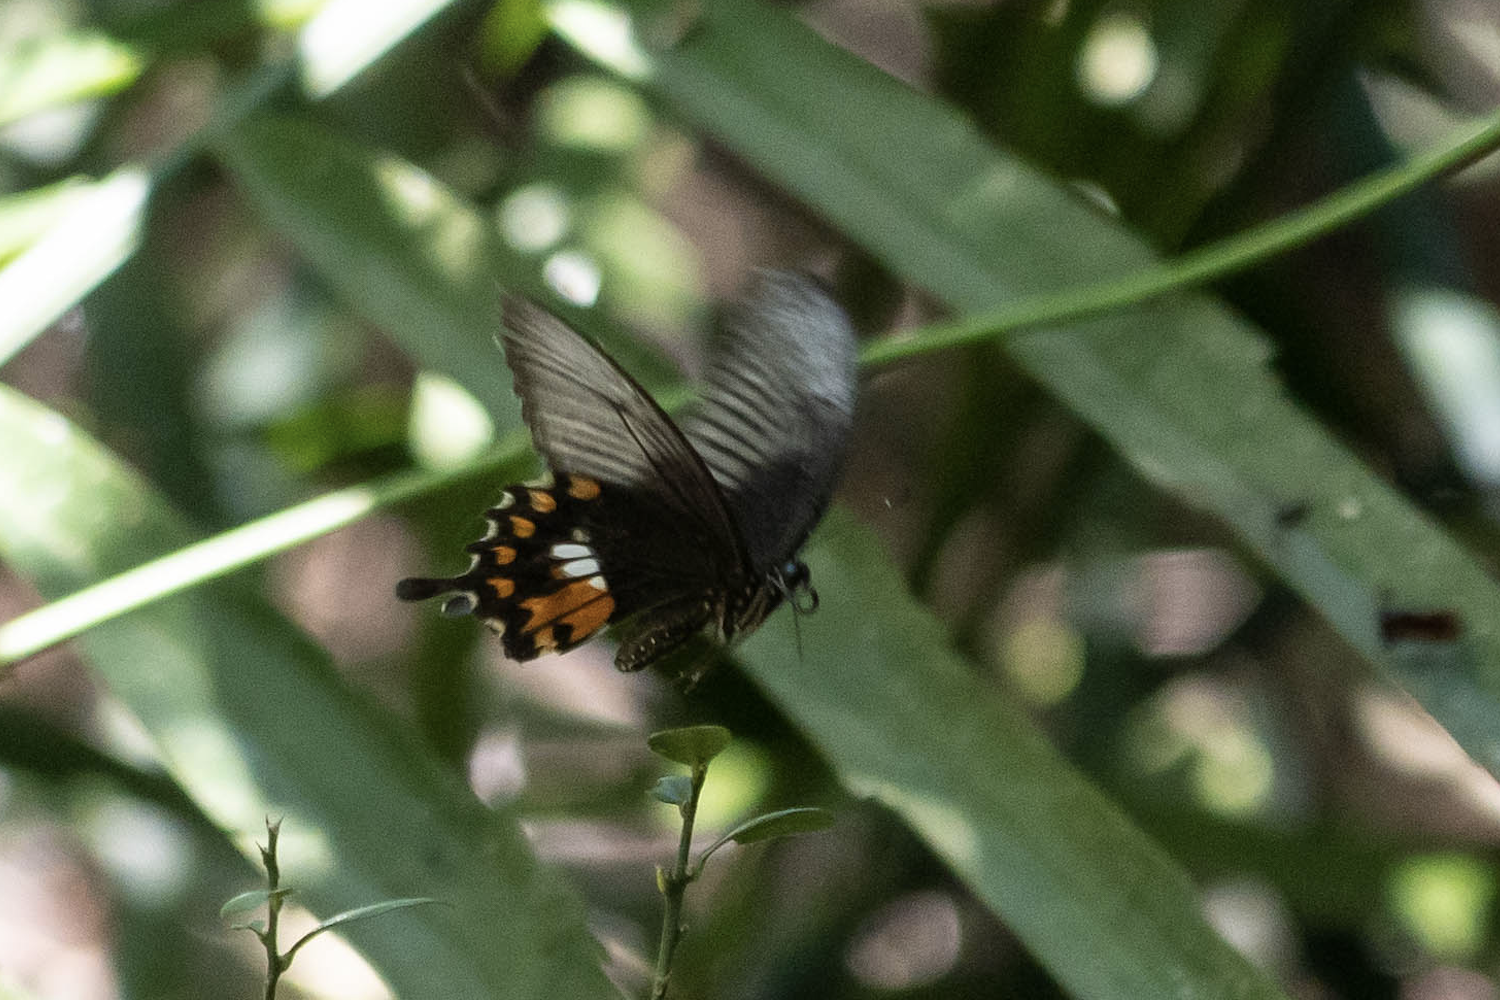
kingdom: Animalia
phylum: Arthropoda
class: Insecta
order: Lepidoptera
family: Papilionidae
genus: Papilio
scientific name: Papilio polytes
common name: Common mormon
